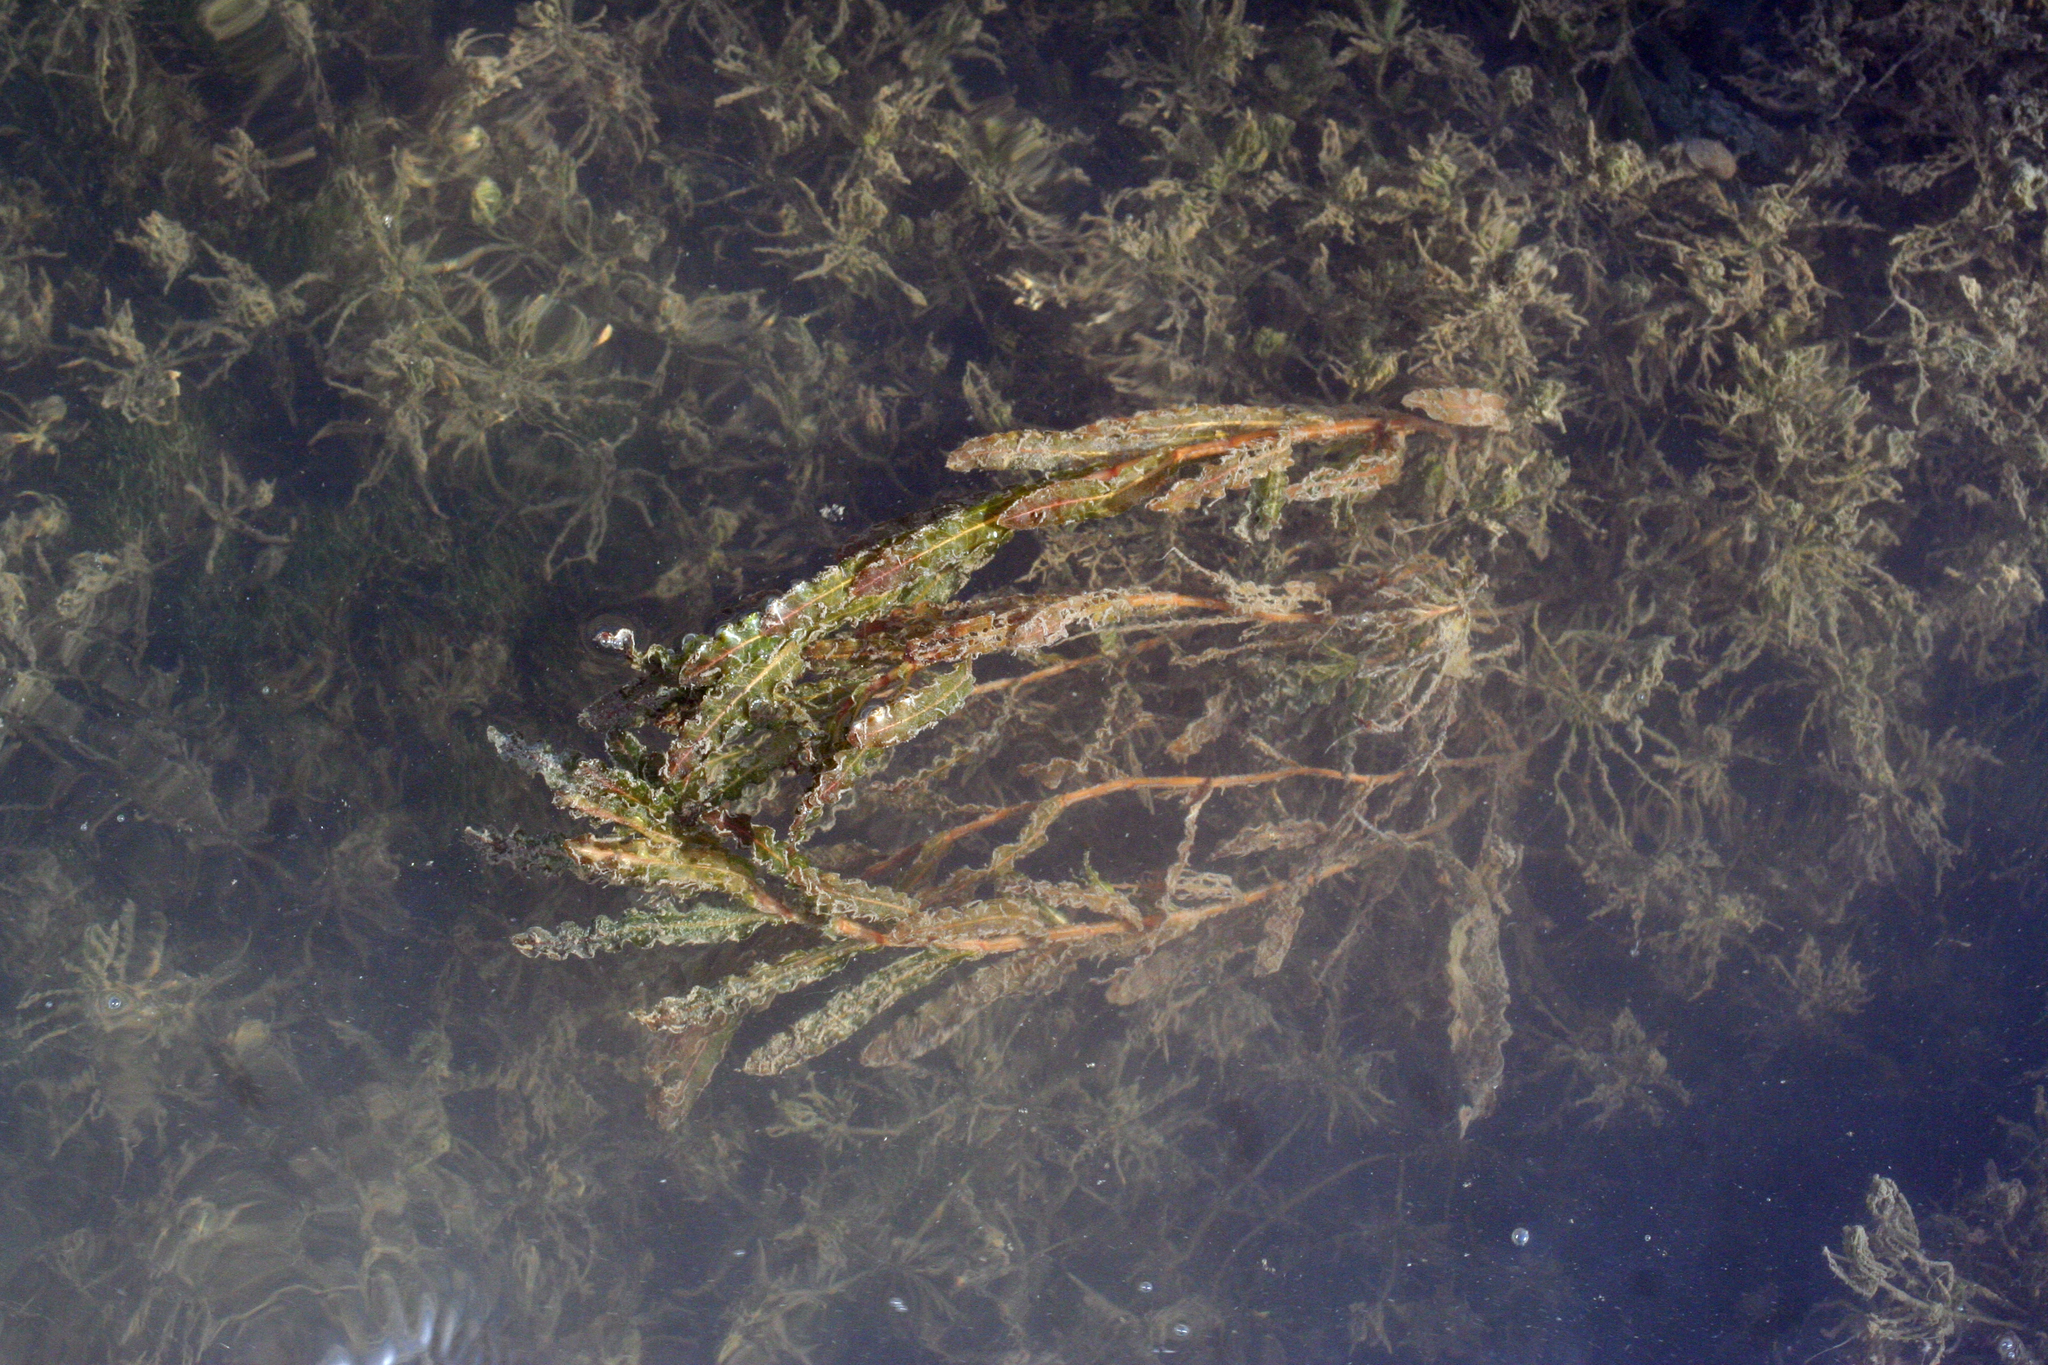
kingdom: Plantae
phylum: Tracheophyta
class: Liliopsida
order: Alismatales
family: Potamogetonaceae
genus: Potamogeton
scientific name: Potamogeton crispus
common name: Curled pondweed
